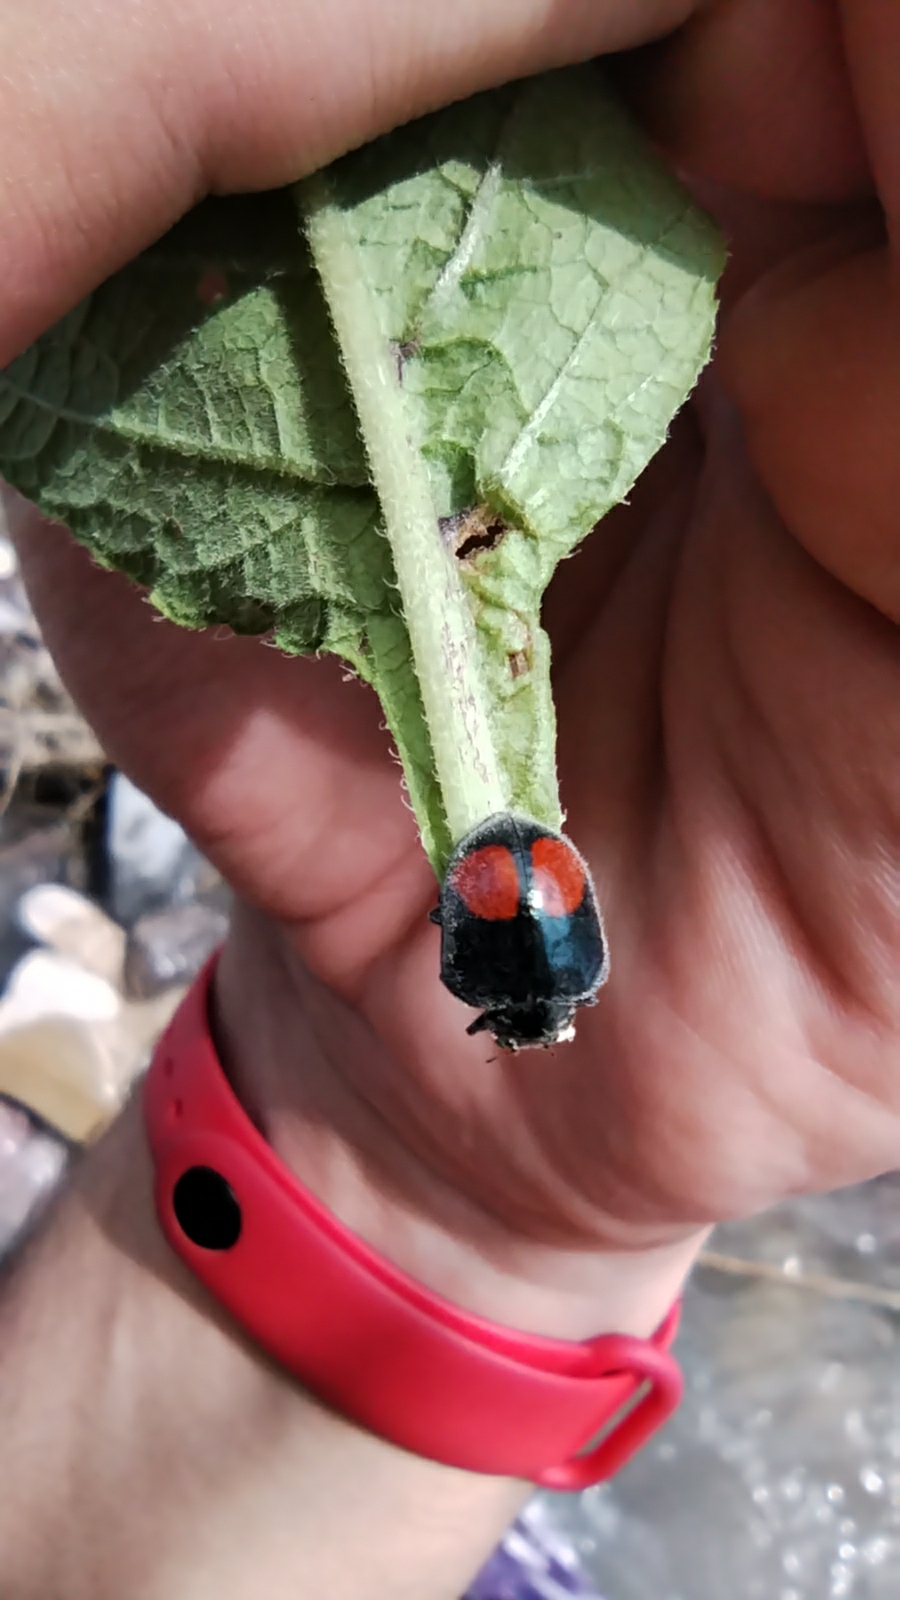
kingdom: Animalia
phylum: Arthropoda
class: Insecta
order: Coleoptera
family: Coccinellidae
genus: Epilachna
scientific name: Epilachna sellata
